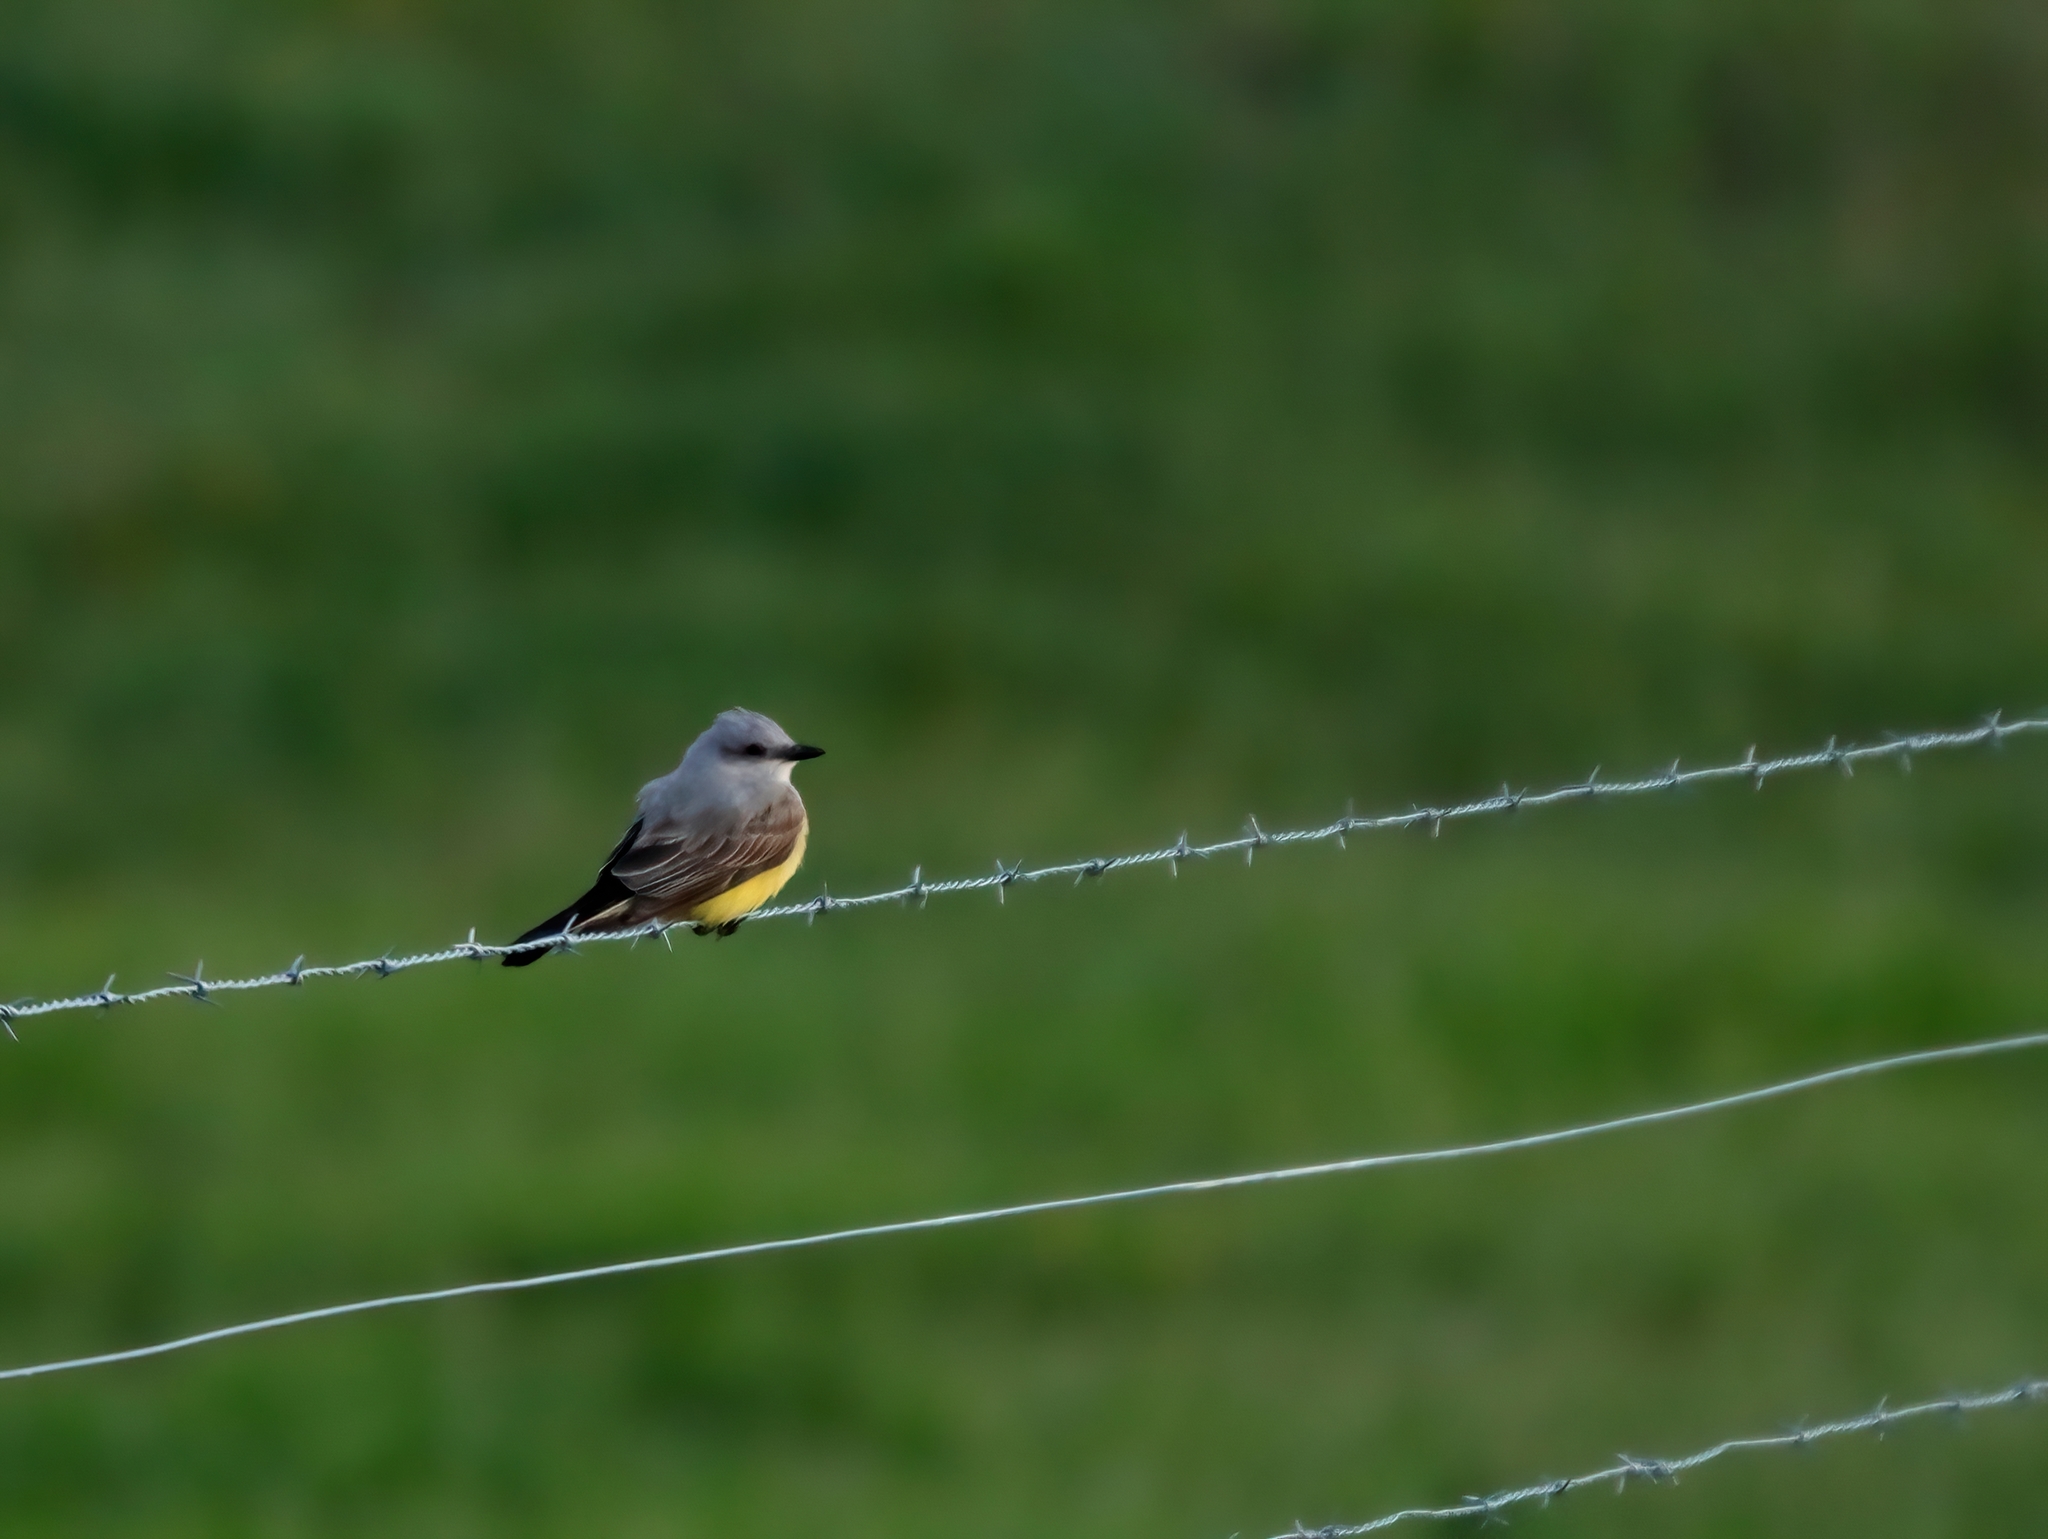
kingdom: Animalia
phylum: Chordata
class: Aves
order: Passeriformes
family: Tyrannidae
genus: Tyrannus
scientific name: Tyrannus verticalis
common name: Western kingbird
